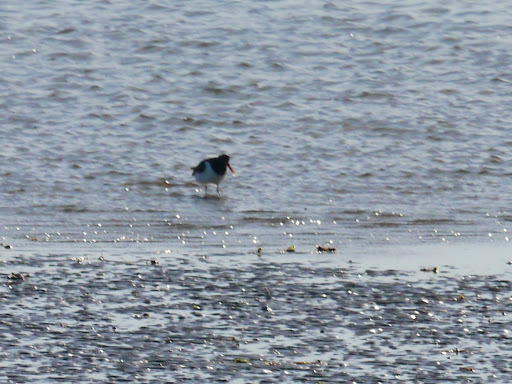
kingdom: Animalia
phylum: Chordata
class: Aves
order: Charadriiformes
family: Haematopodidae
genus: Haematopus
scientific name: Haematopus palliatus
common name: American oystercatcher
